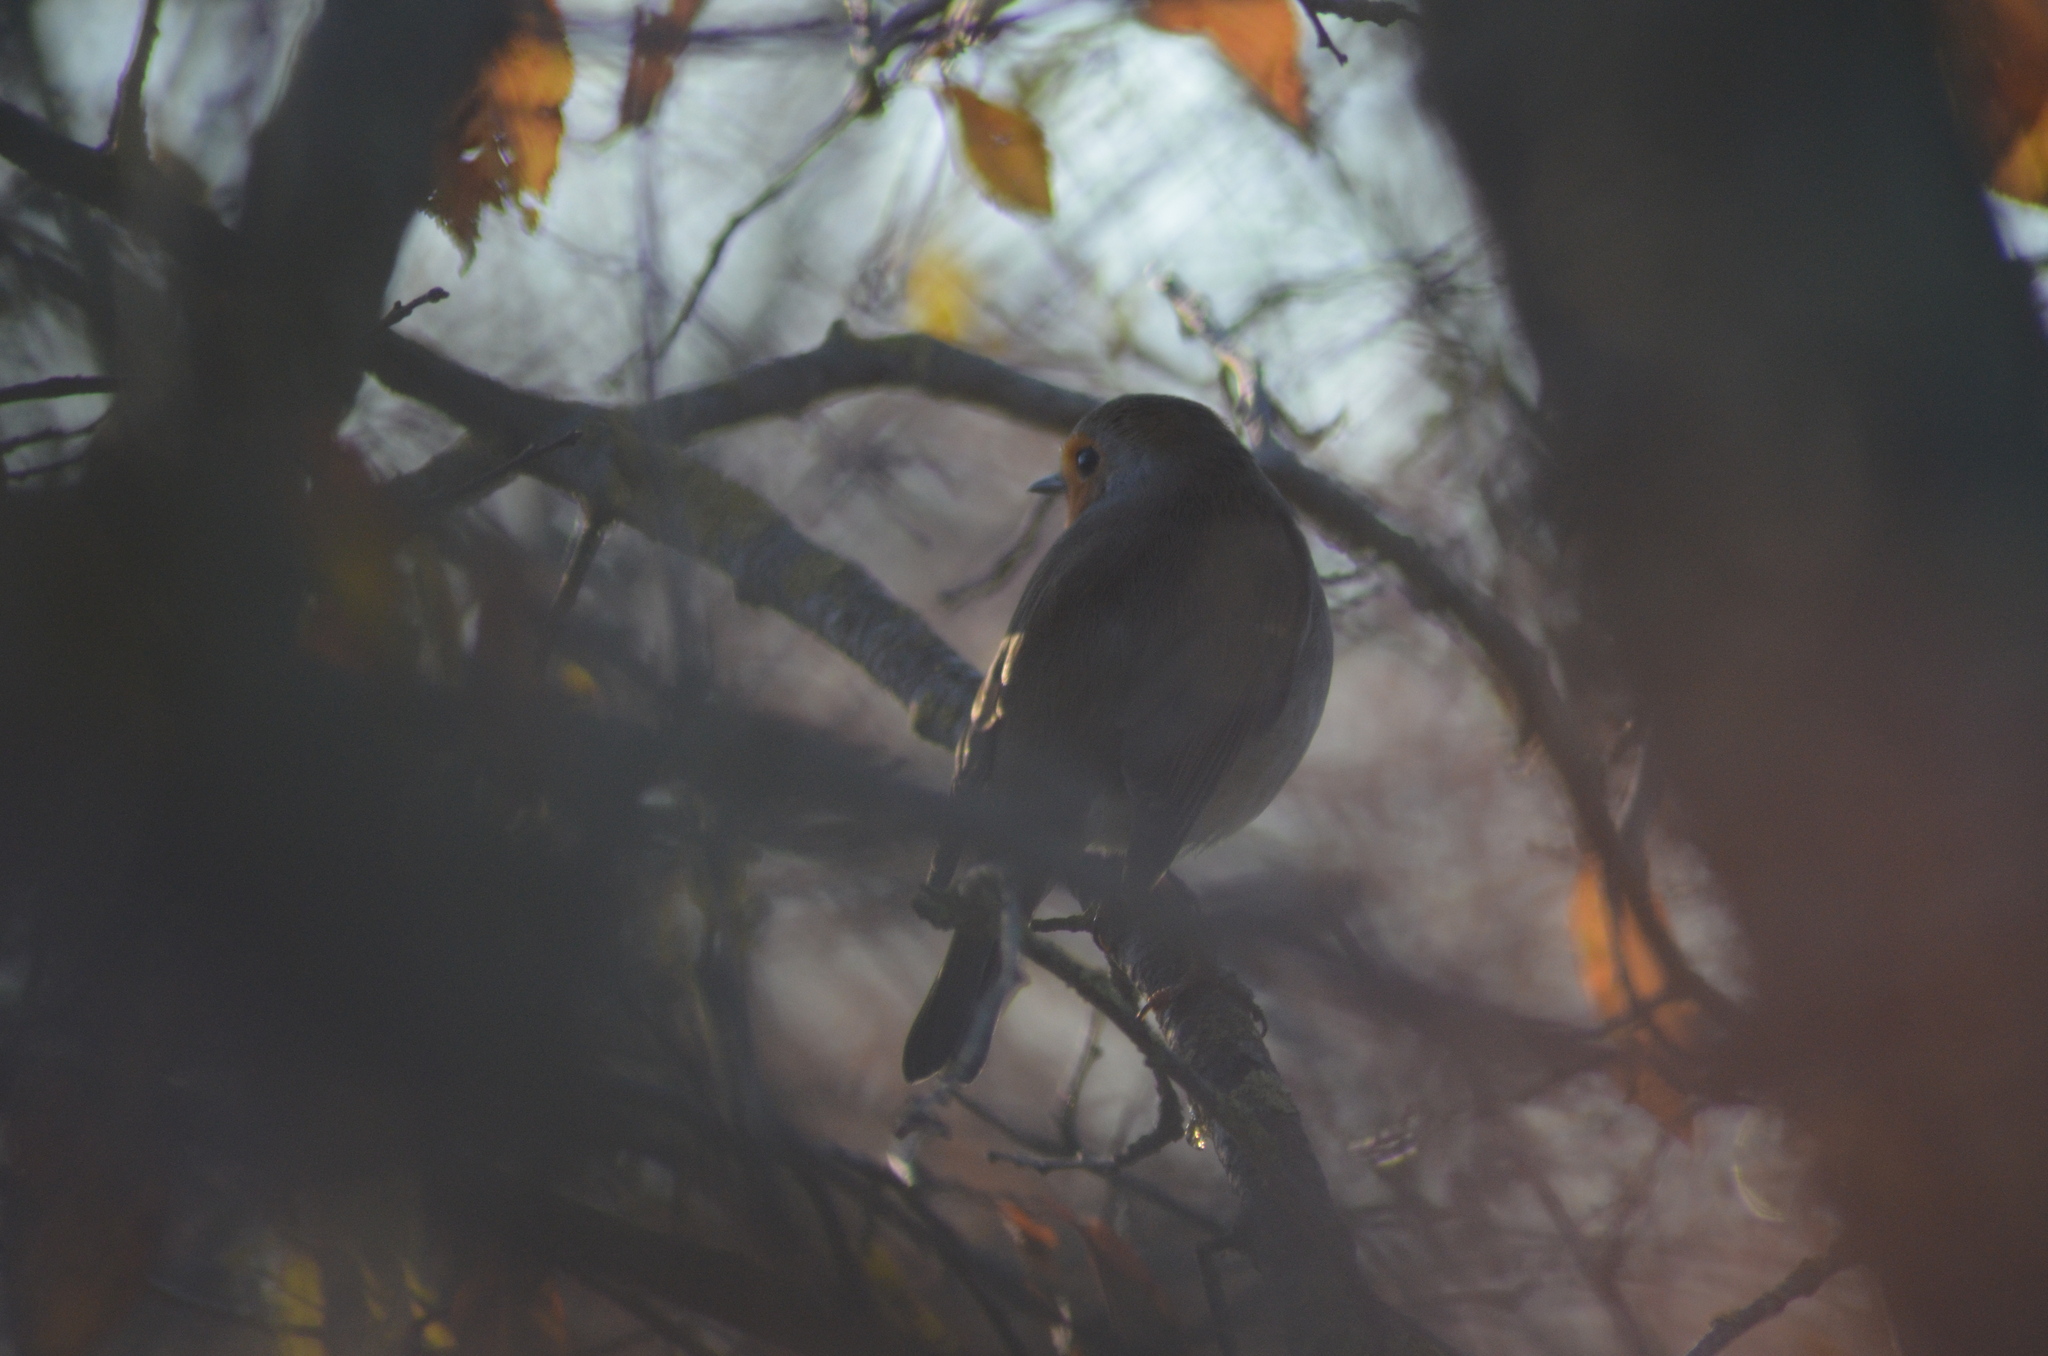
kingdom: Animalia
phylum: Chordata
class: Aves
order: Passeriformes
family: Muscicapidae
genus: Erithacus
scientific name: Erithacus rubecula
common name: European robin
